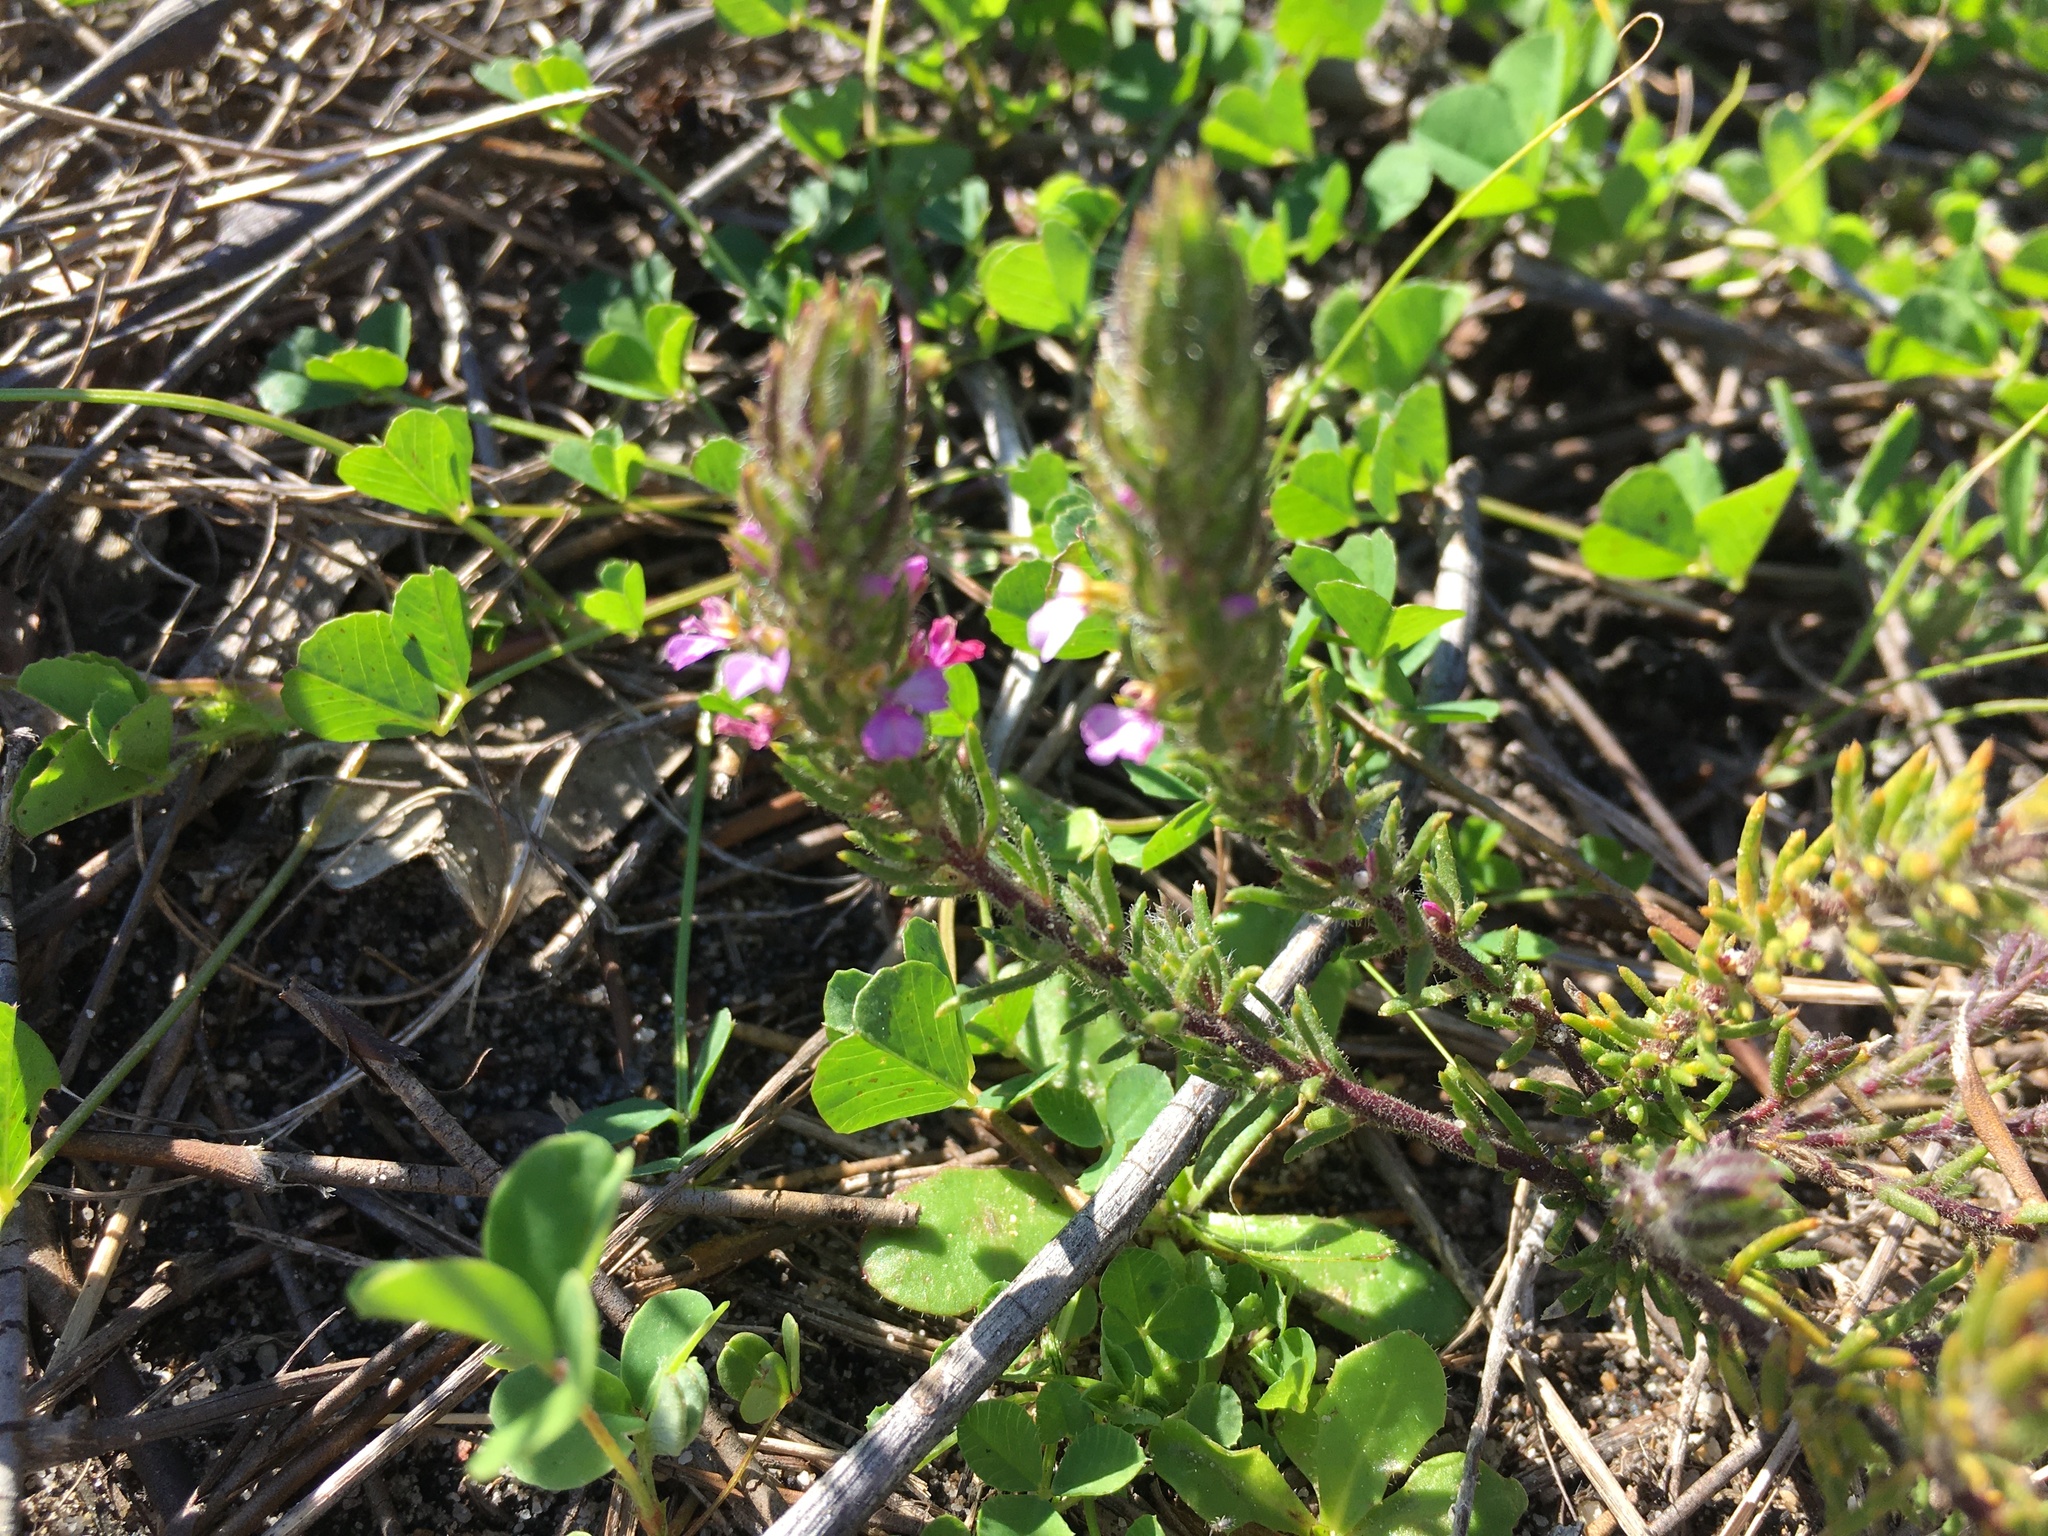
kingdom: Plantae
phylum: Tracheophyta
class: Magnoliopsida
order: Fabales
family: Polygalaceae
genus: Muraltia
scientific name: Muraltia thunbergii
